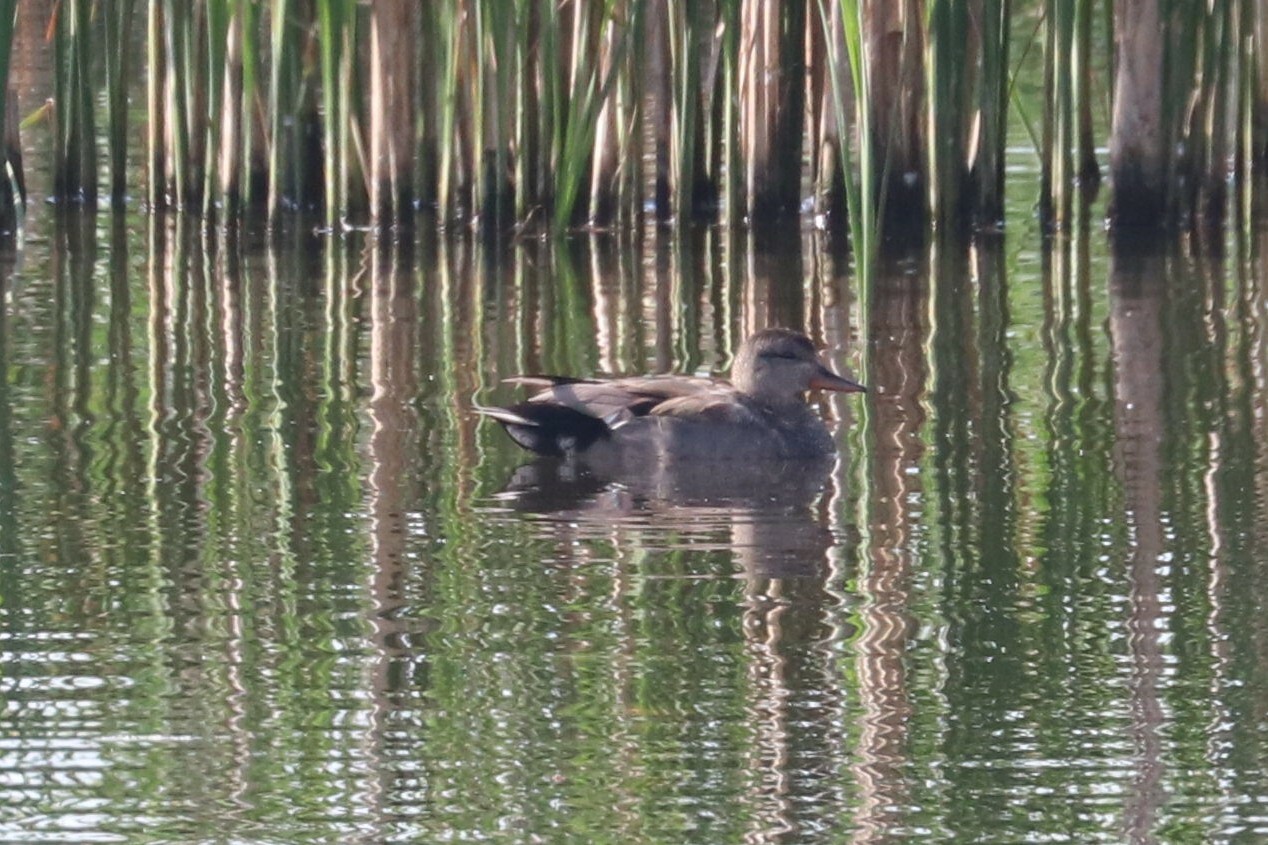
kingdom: Animalia
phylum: Chordata
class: Aves
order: Anseriformes
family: Anatidae
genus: Mareca
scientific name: Mareca strepera
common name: Gadwall
